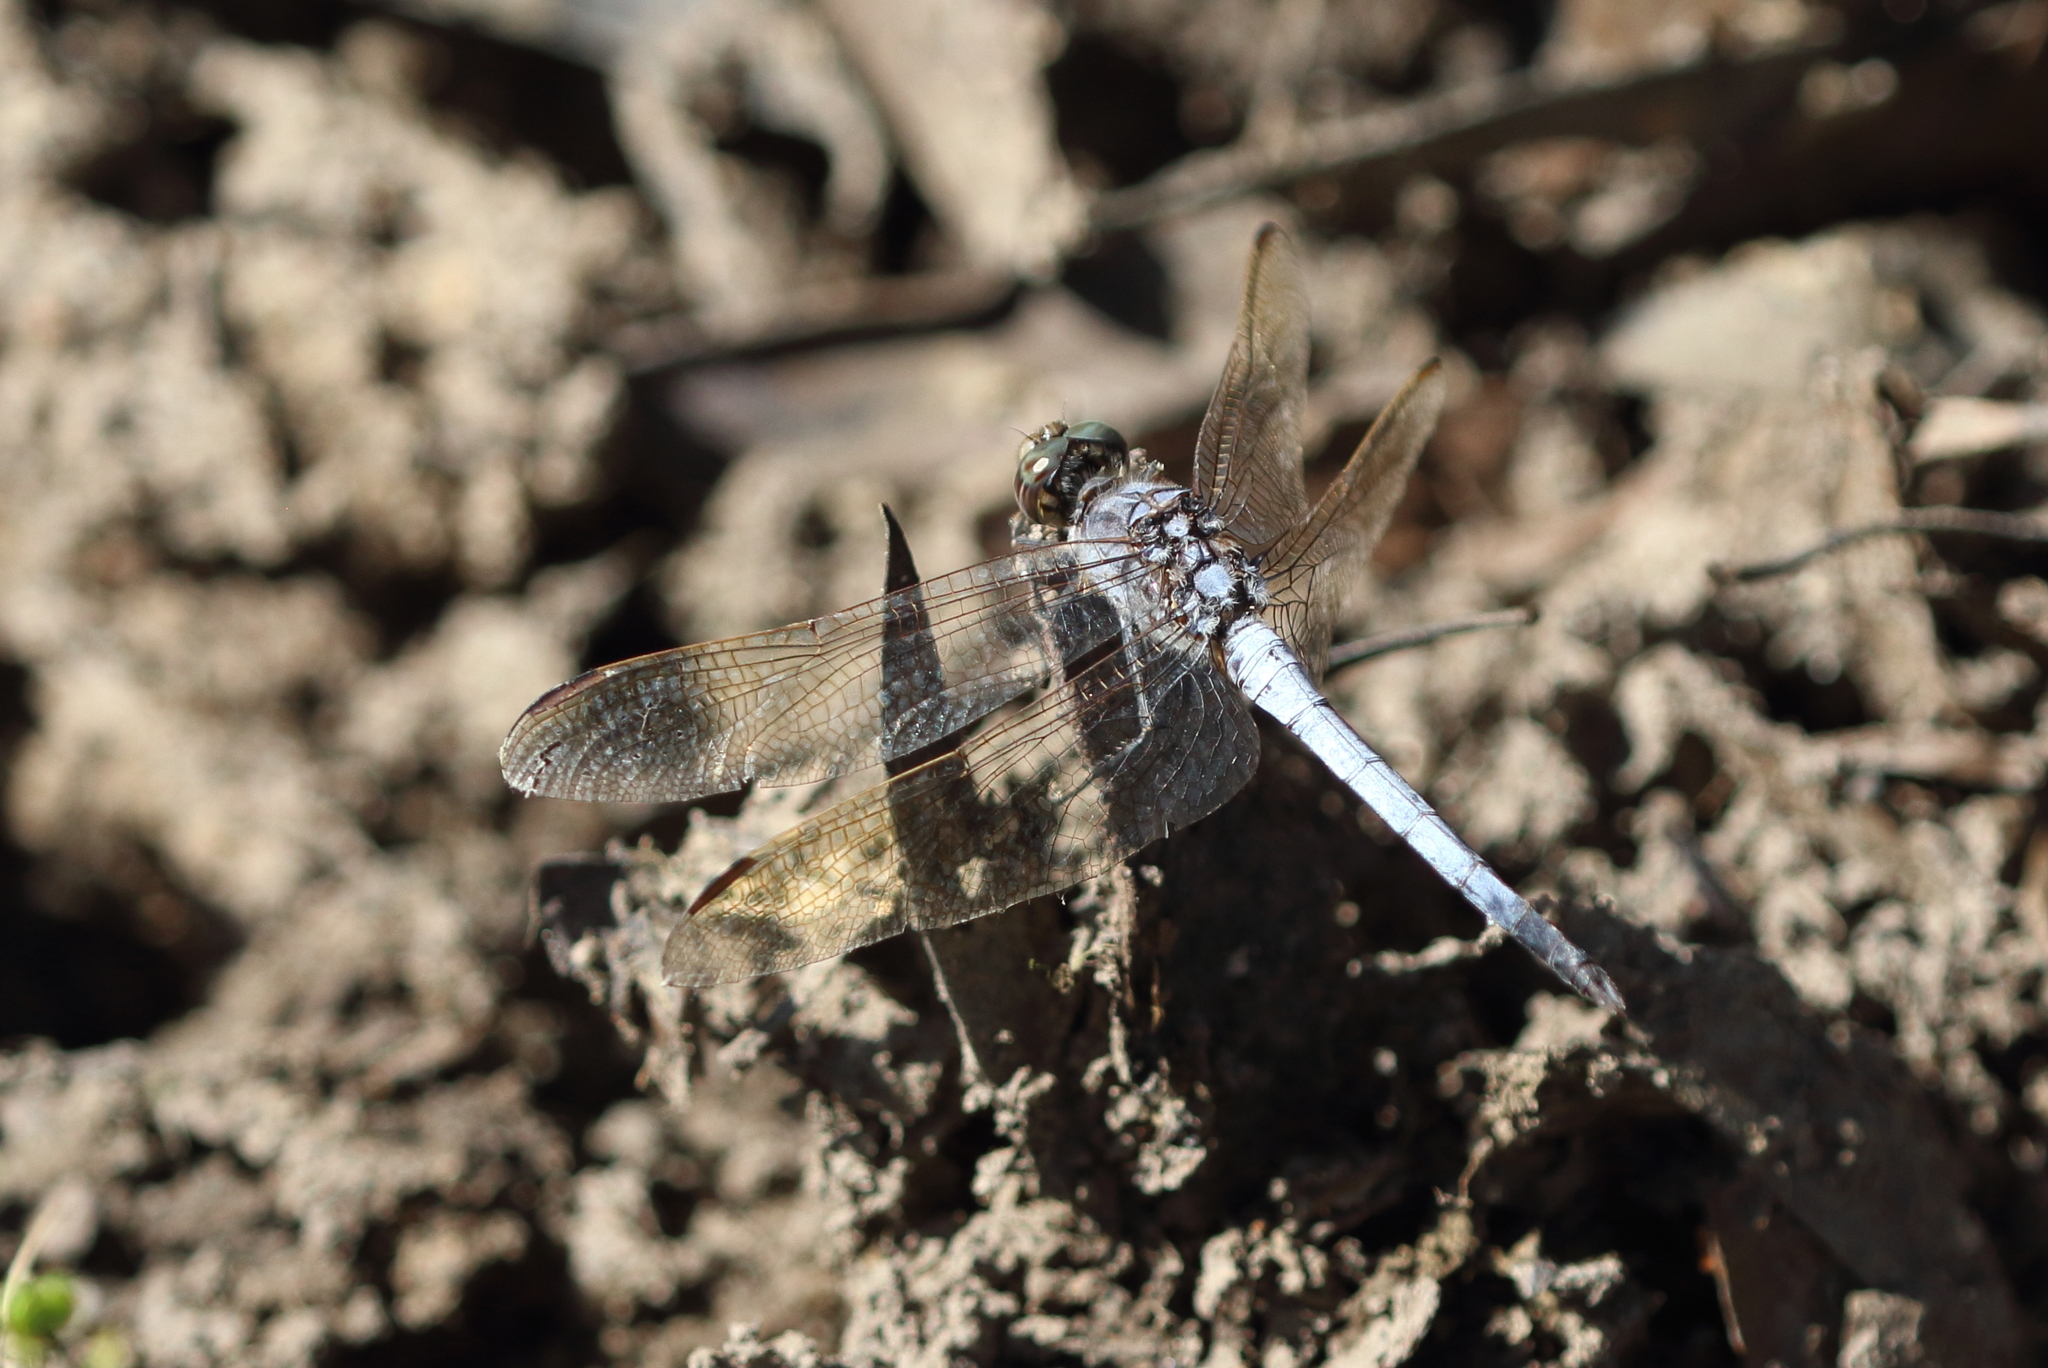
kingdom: Animalia
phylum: Arthropoda
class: Insecta
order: Odonata
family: Libellulidae
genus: Orthetrum
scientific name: Orthetrum caledonicum
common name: Blue skimmer
